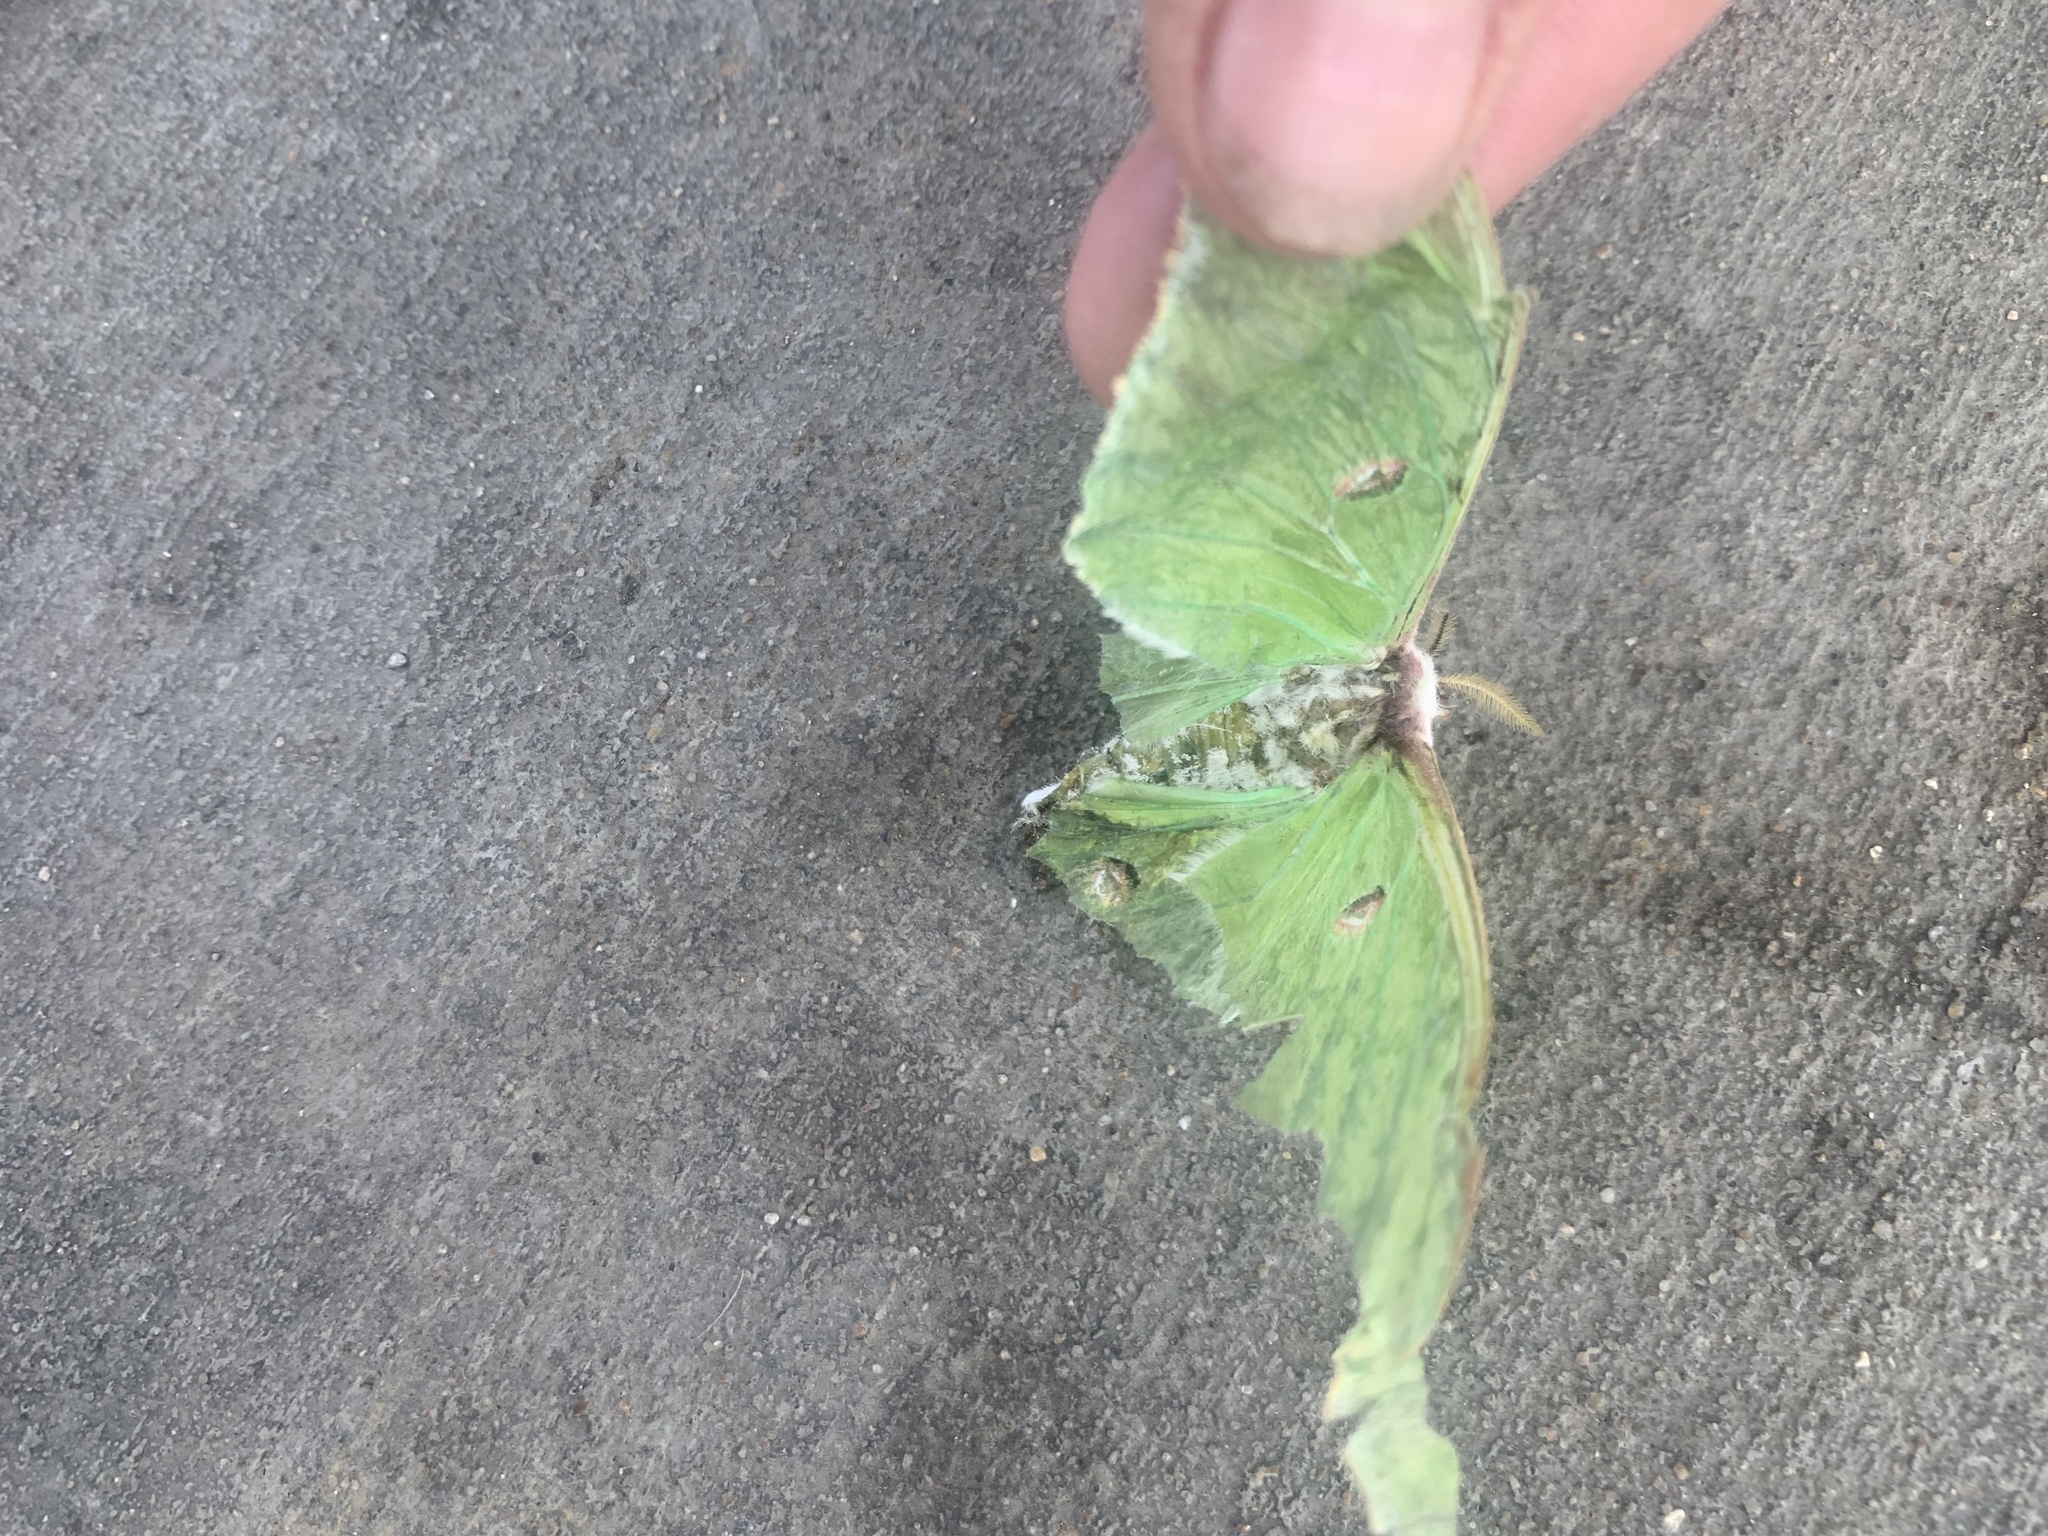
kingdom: Animalia
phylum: Arthropoda
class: Insecta
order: Lepidoptera
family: Saturniidae
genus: Actias
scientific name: Actias luna
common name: Luna moth
